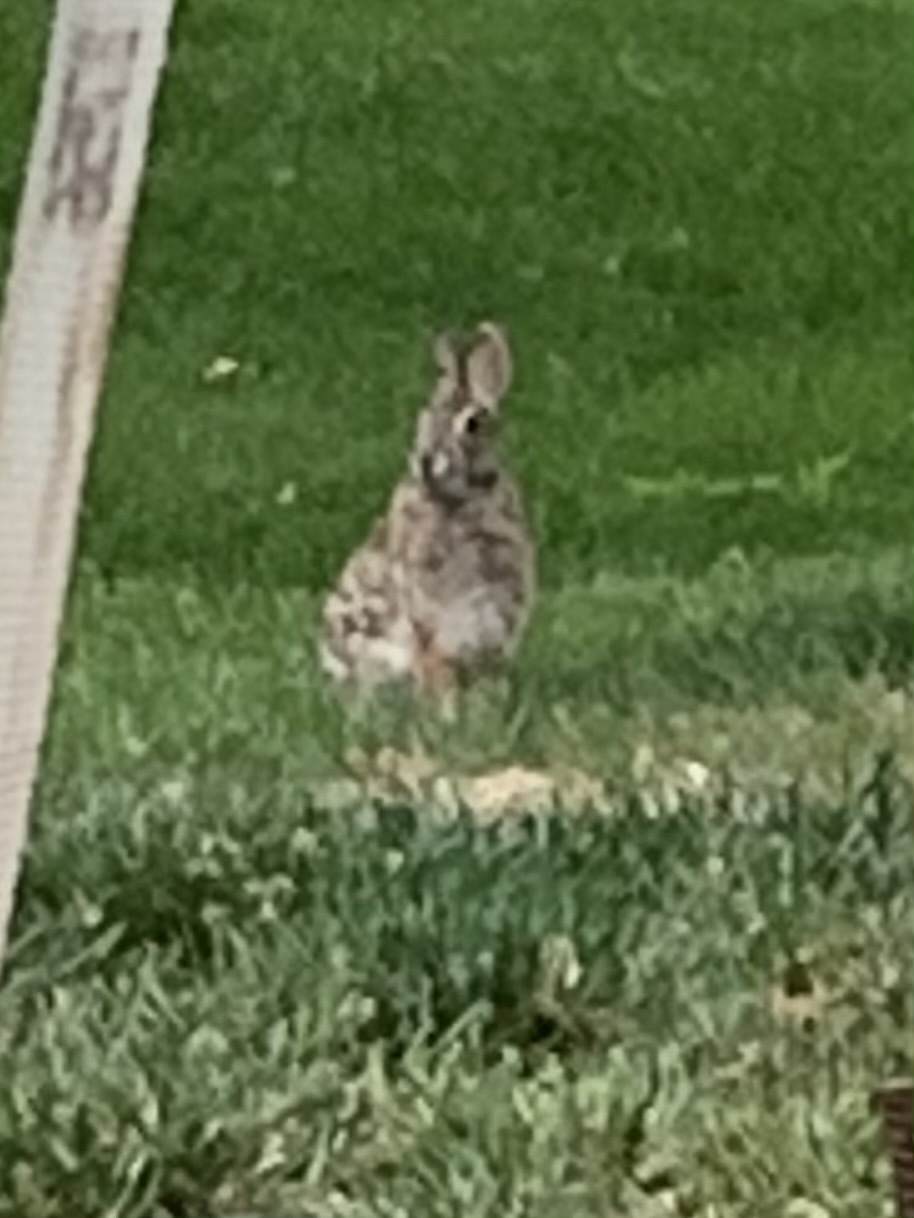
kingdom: Animalia
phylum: Chordata
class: Mammalia
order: Lagomorpha
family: Leporidae
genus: Sylvilagus
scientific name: Sylvilagus floridanus
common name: Eastern cottontail
